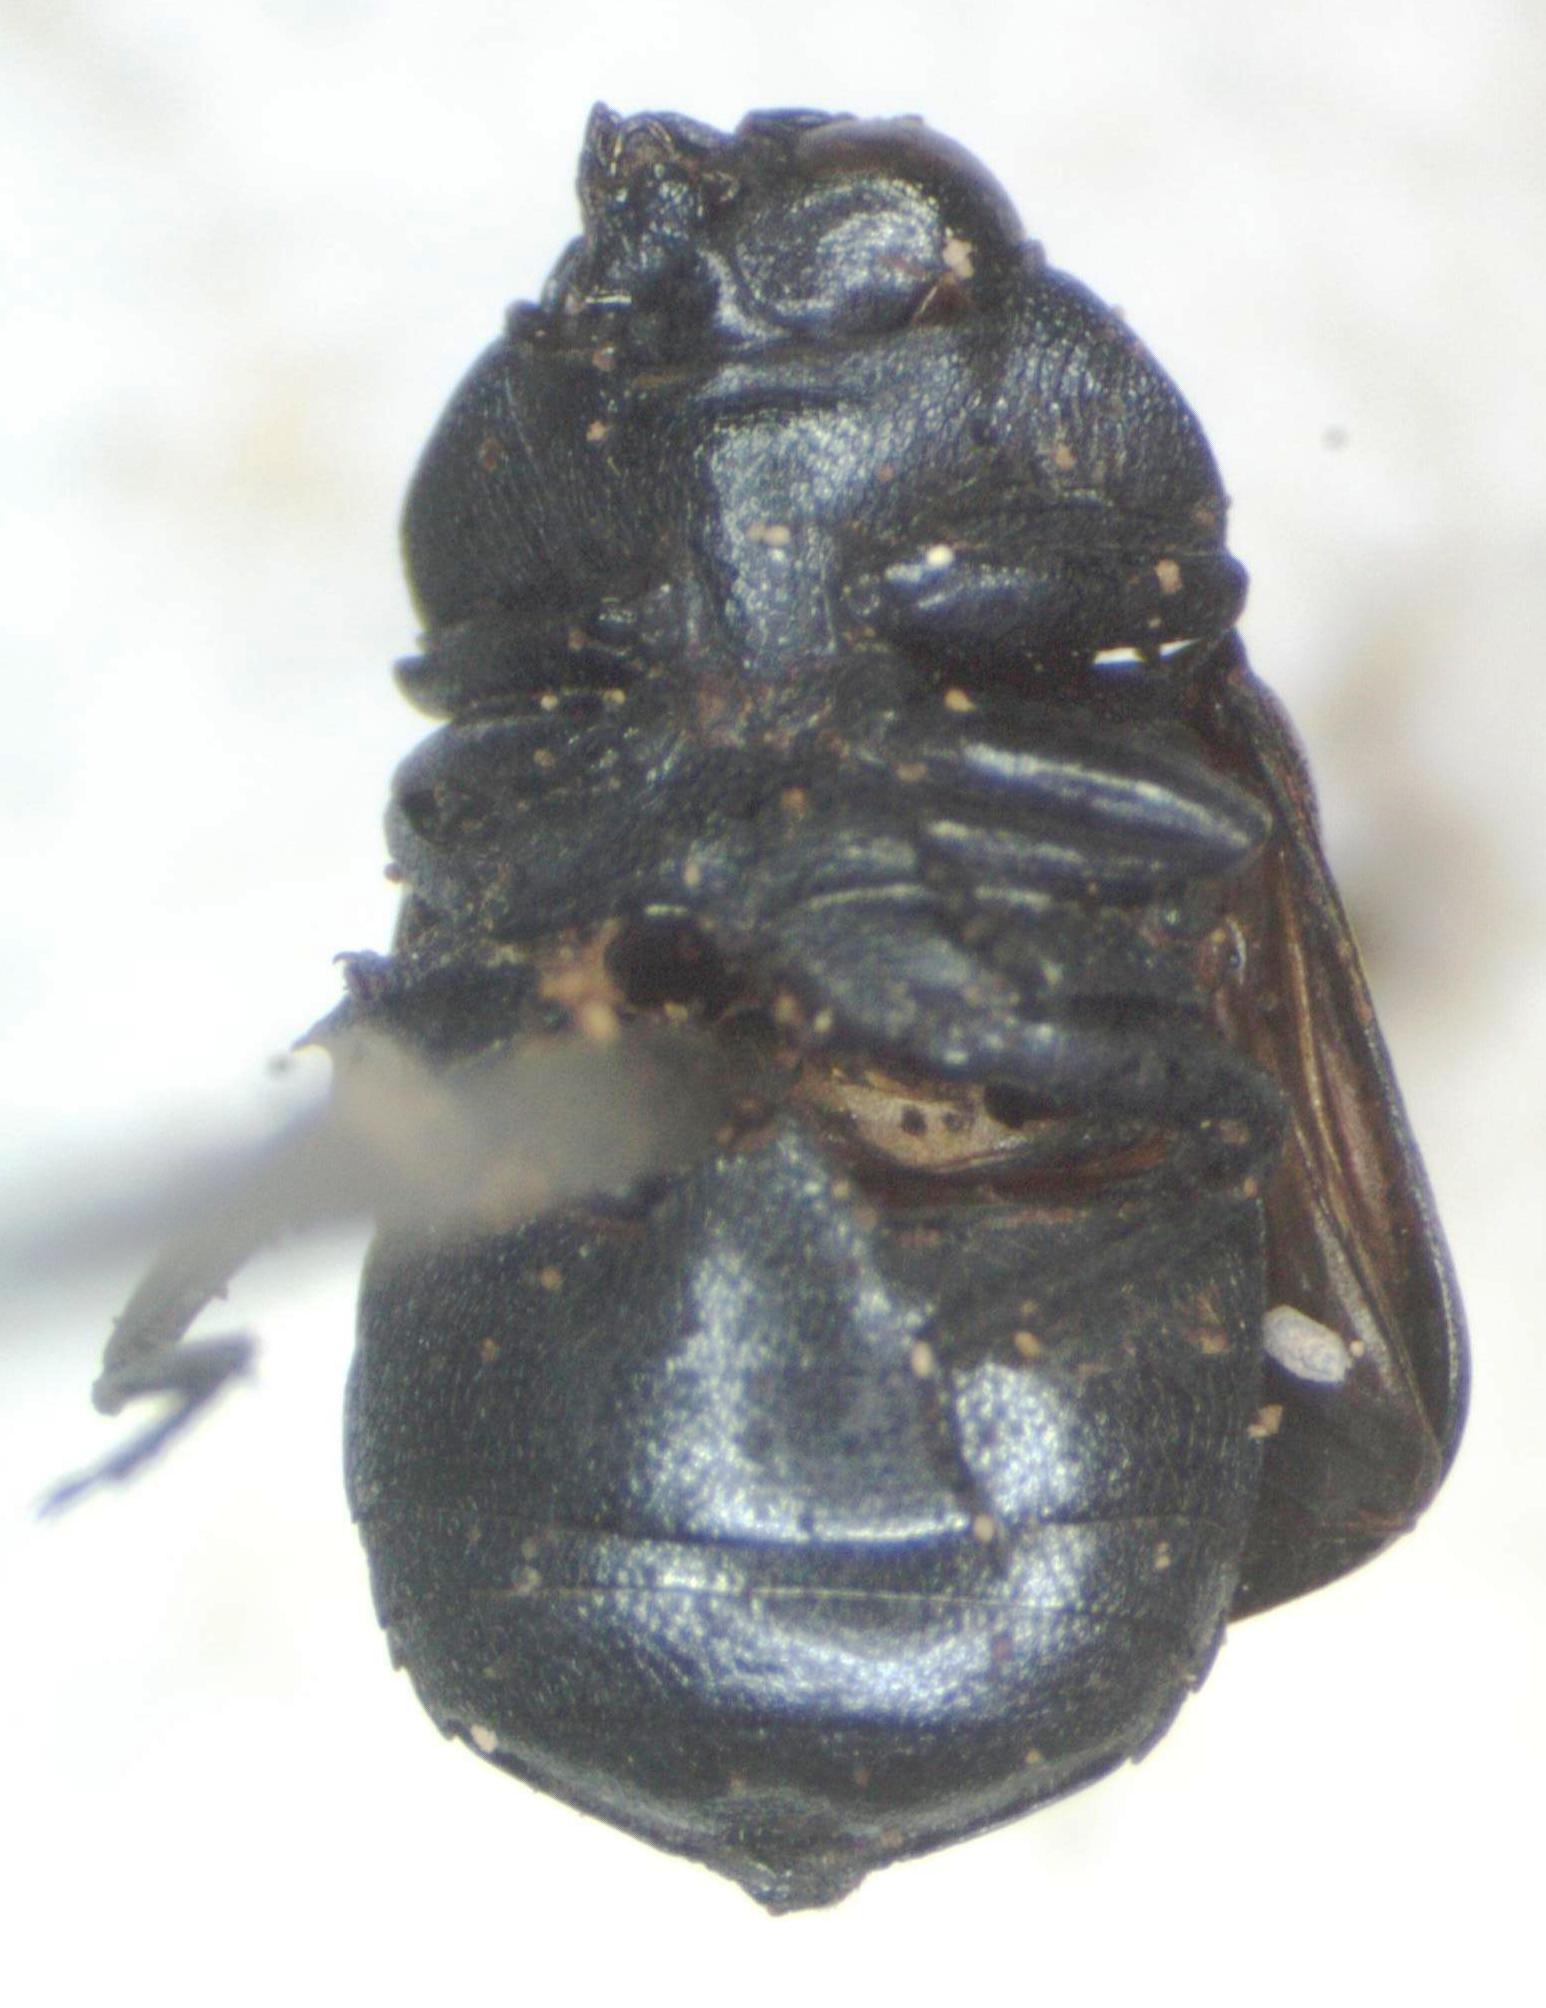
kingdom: Animalia
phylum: Arthropoda
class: Insecta
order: Coleoptera
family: Buprestidae
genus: Tetragonoschema
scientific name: Tetragonoschema humerale
